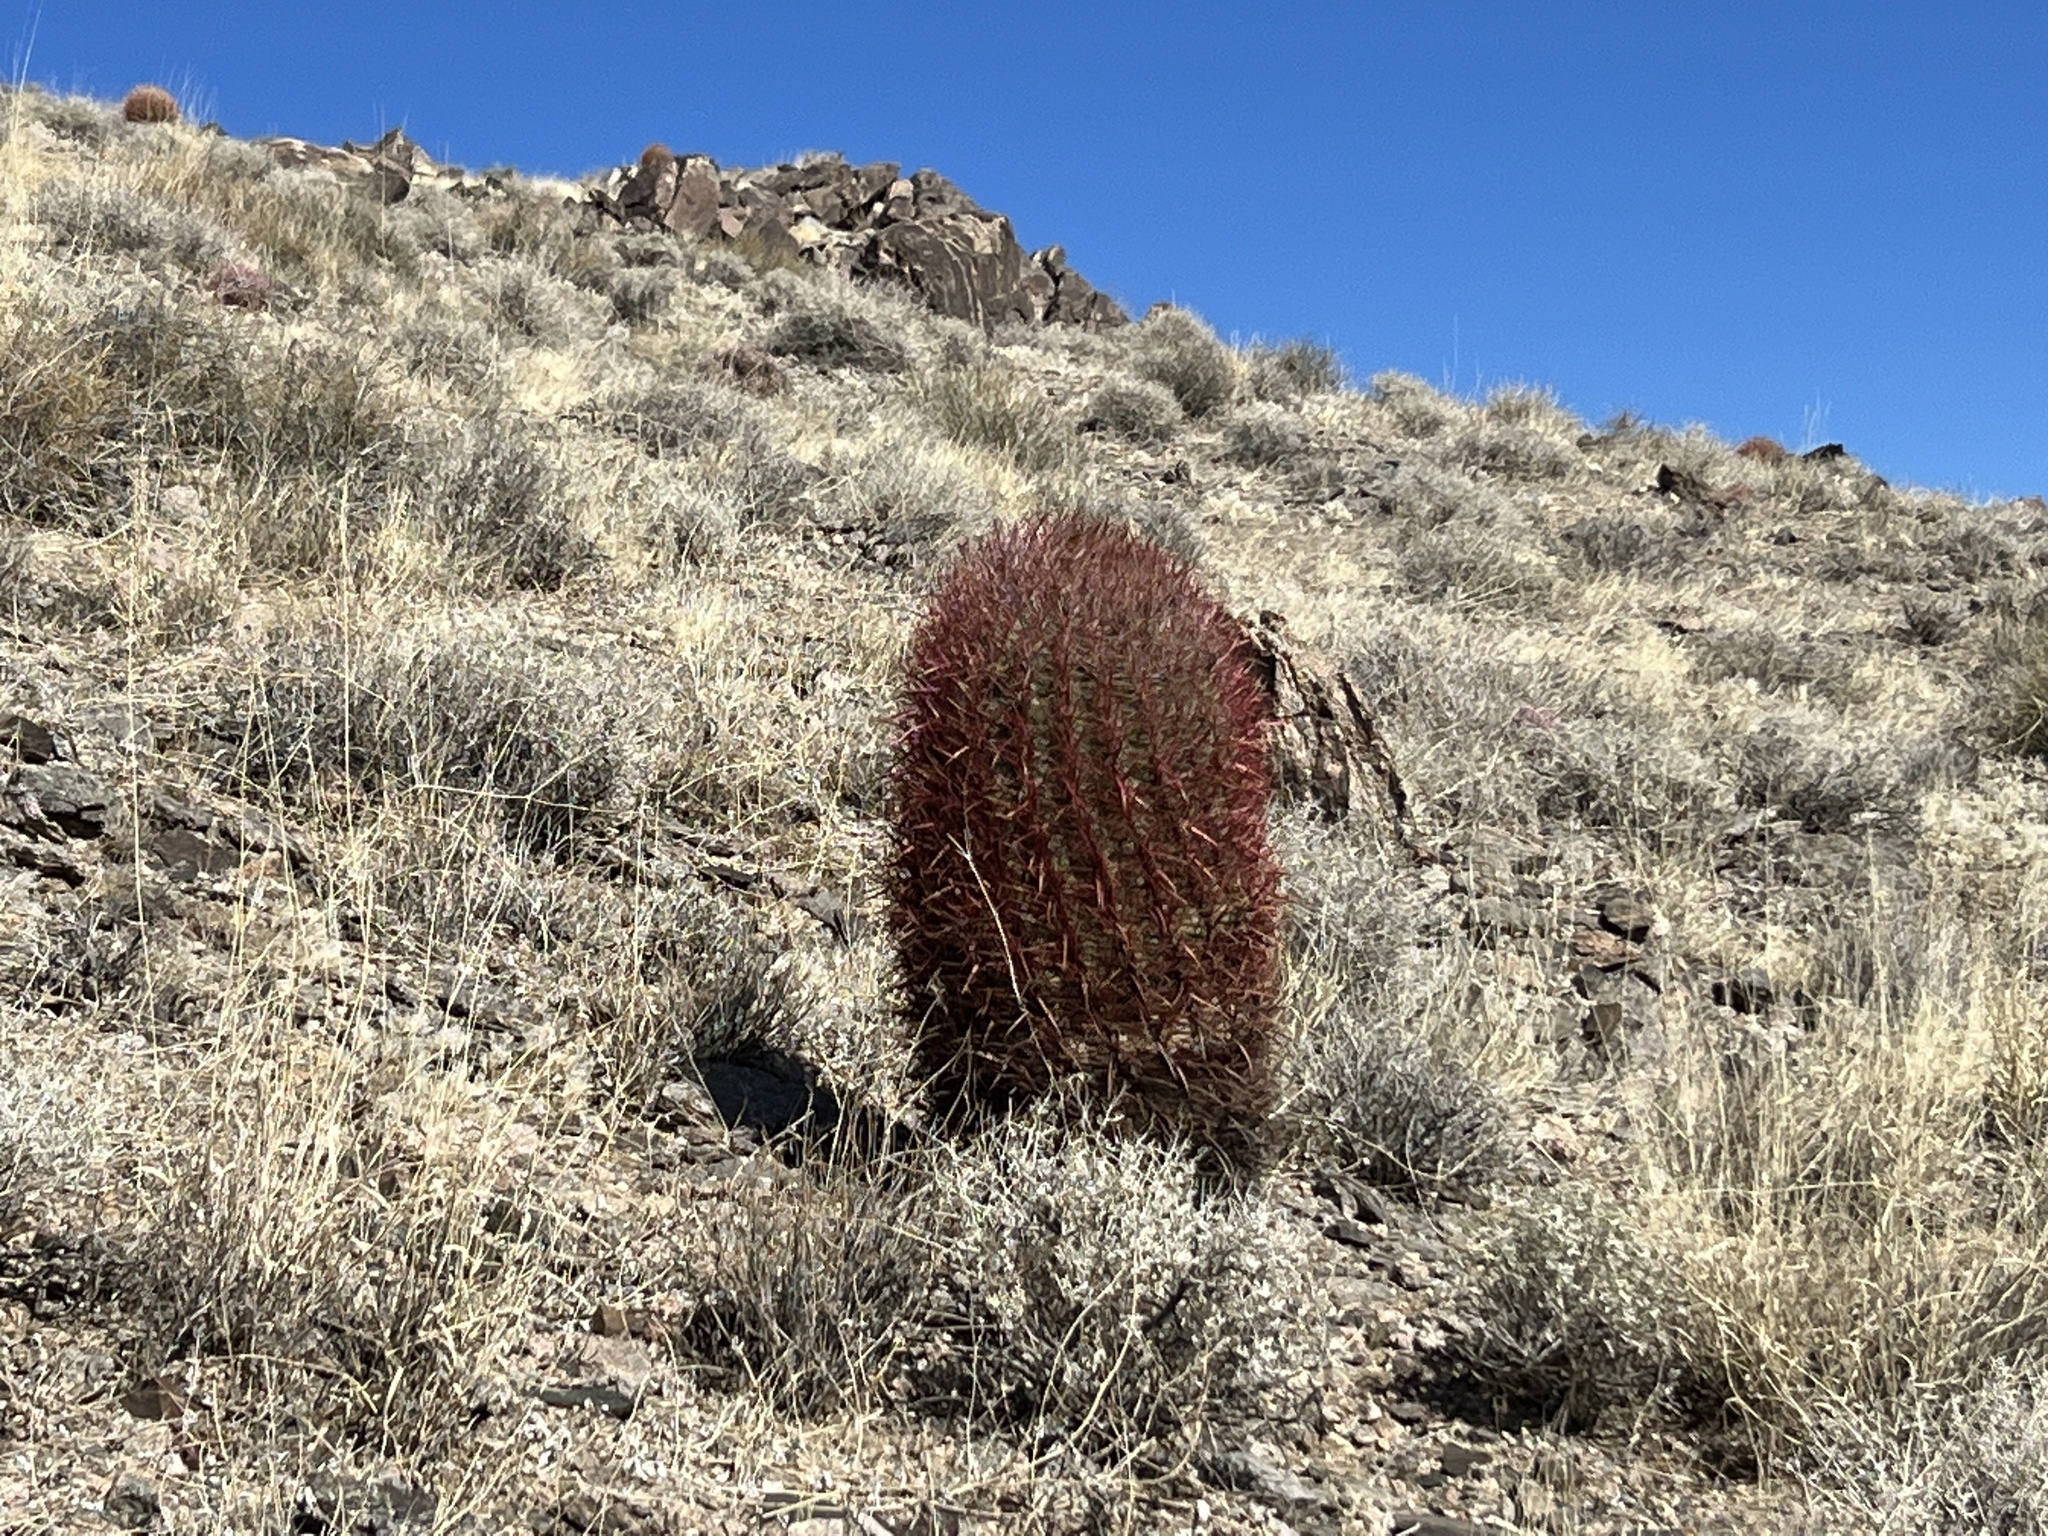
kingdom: Plantae
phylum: Tracheophyta
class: Magnoliopsida
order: Caryophyllales
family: Cactaceae
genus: Ferocactus
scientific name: Ferocactus cylindraceus
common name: California barrel cactus
